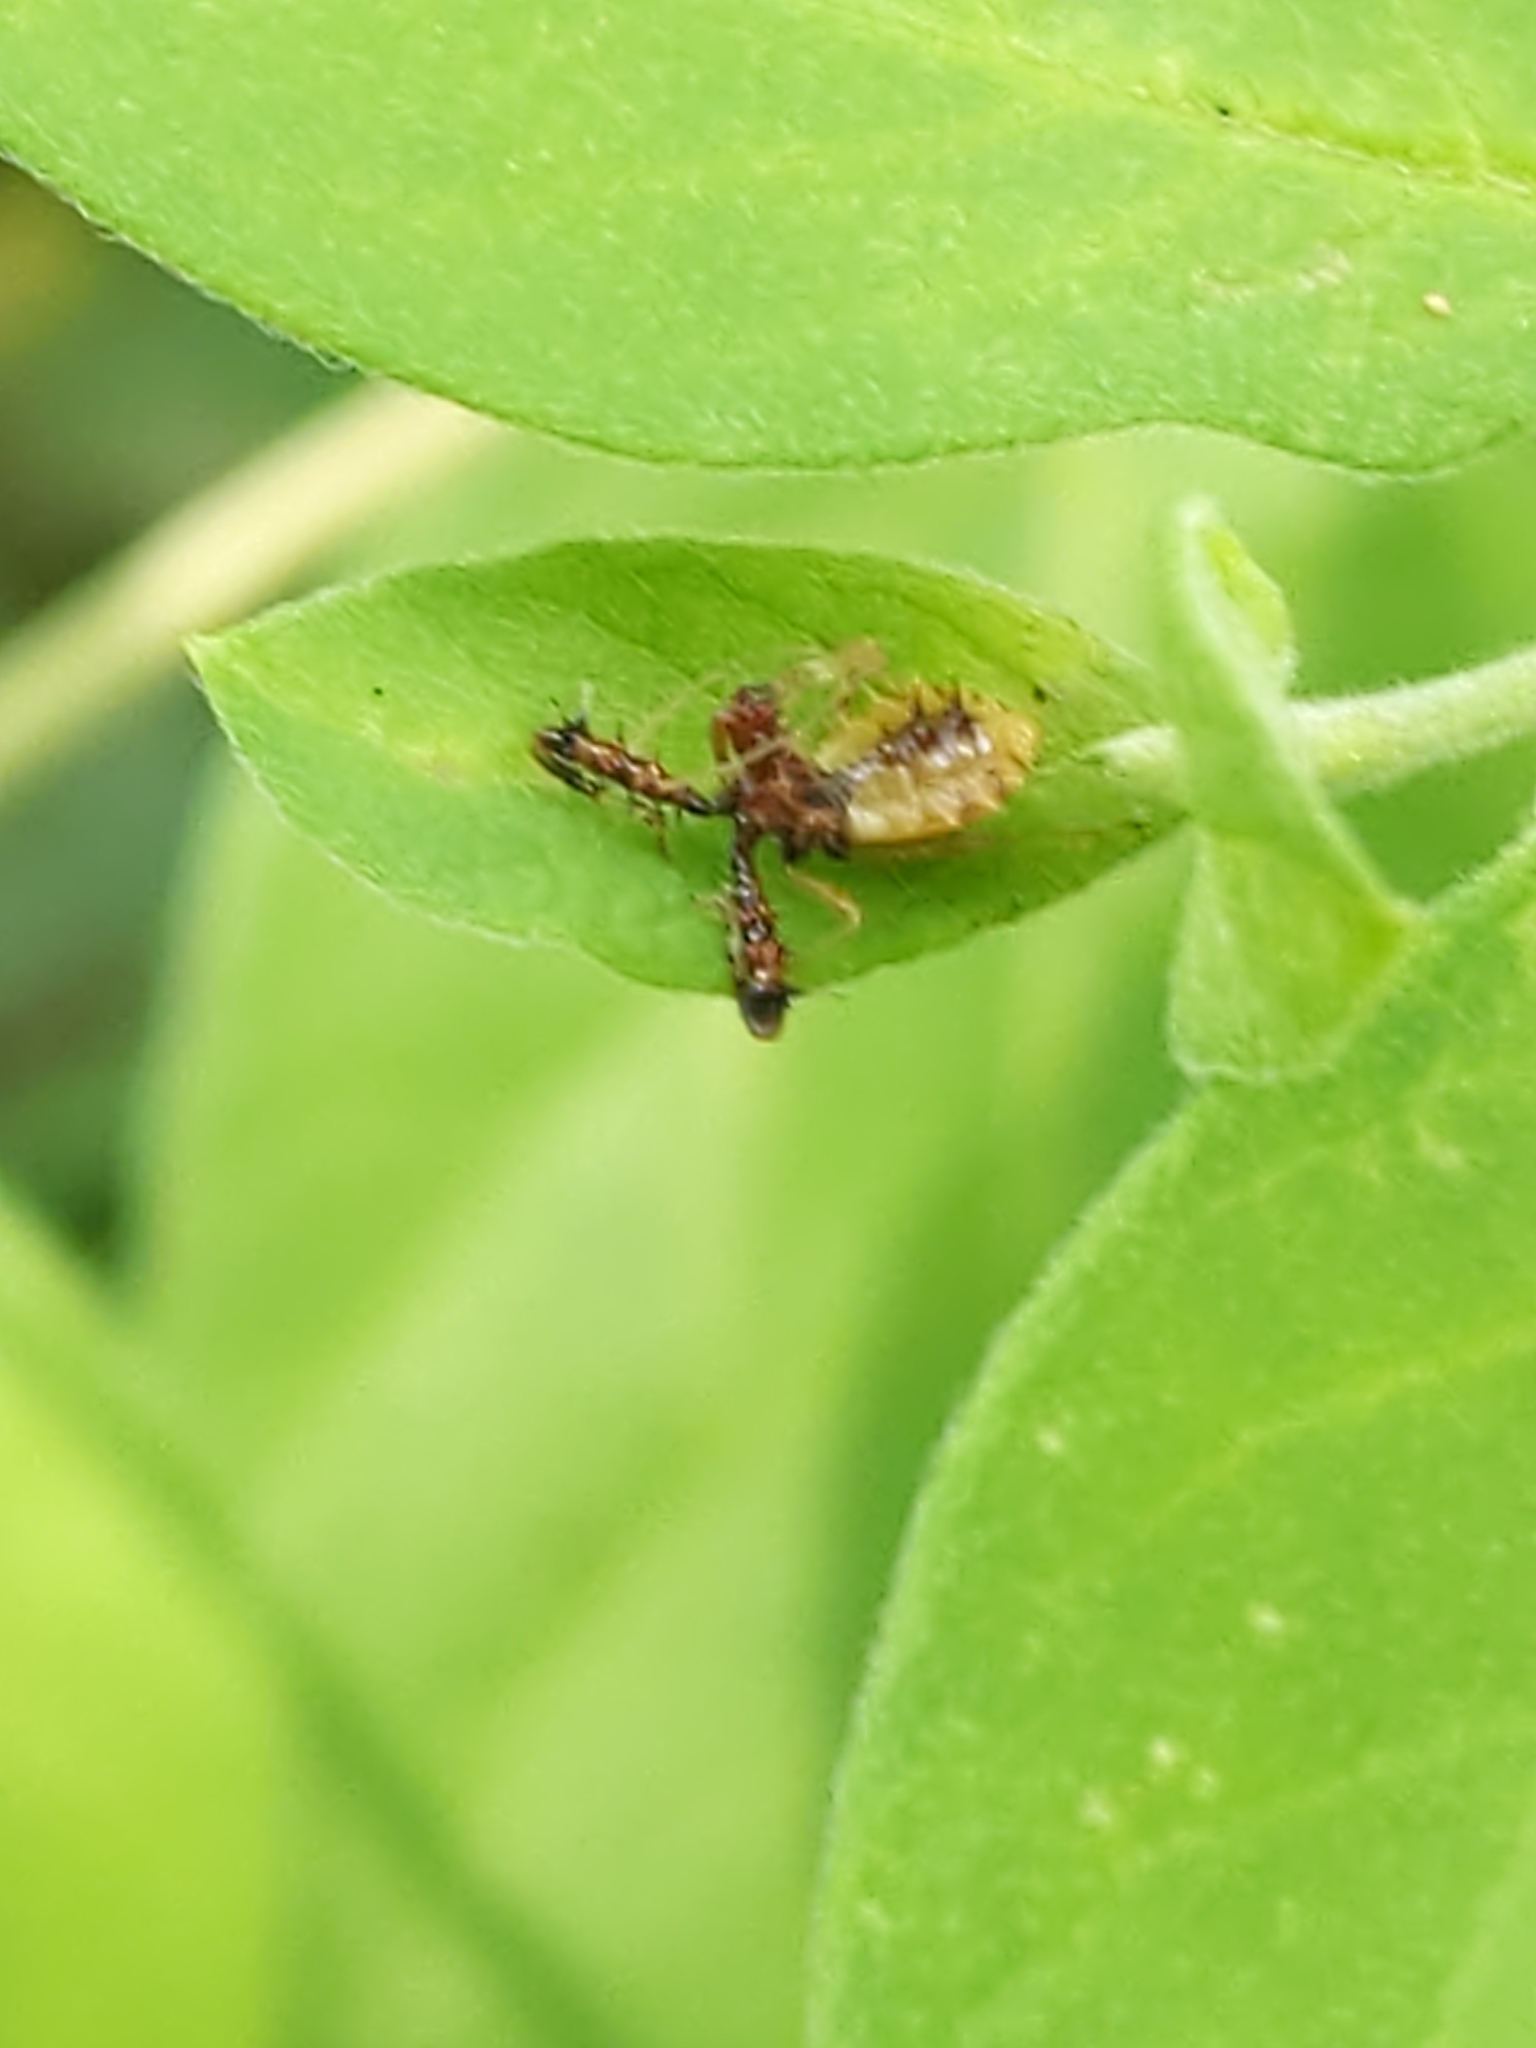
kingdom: Animalia
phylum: Arthropoda
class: Insecta
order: Hemiptera
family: Reduviidae
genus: Sinea
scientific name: Sinea
